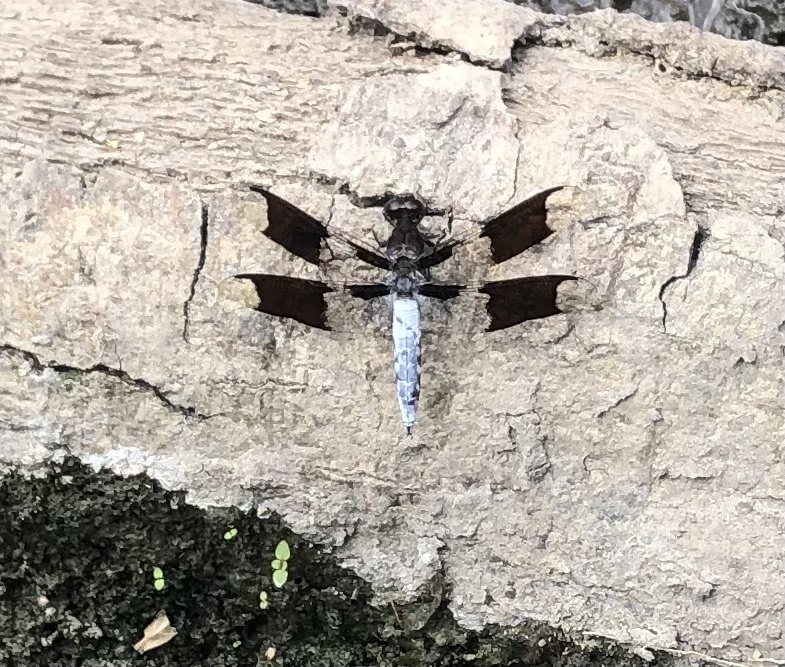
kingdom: Animalia
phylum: Arthropoda
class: Insecta
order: Odonata
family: Libellulidae
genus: Plathemis
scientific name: Plathemis lydia
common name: Common whitetail
